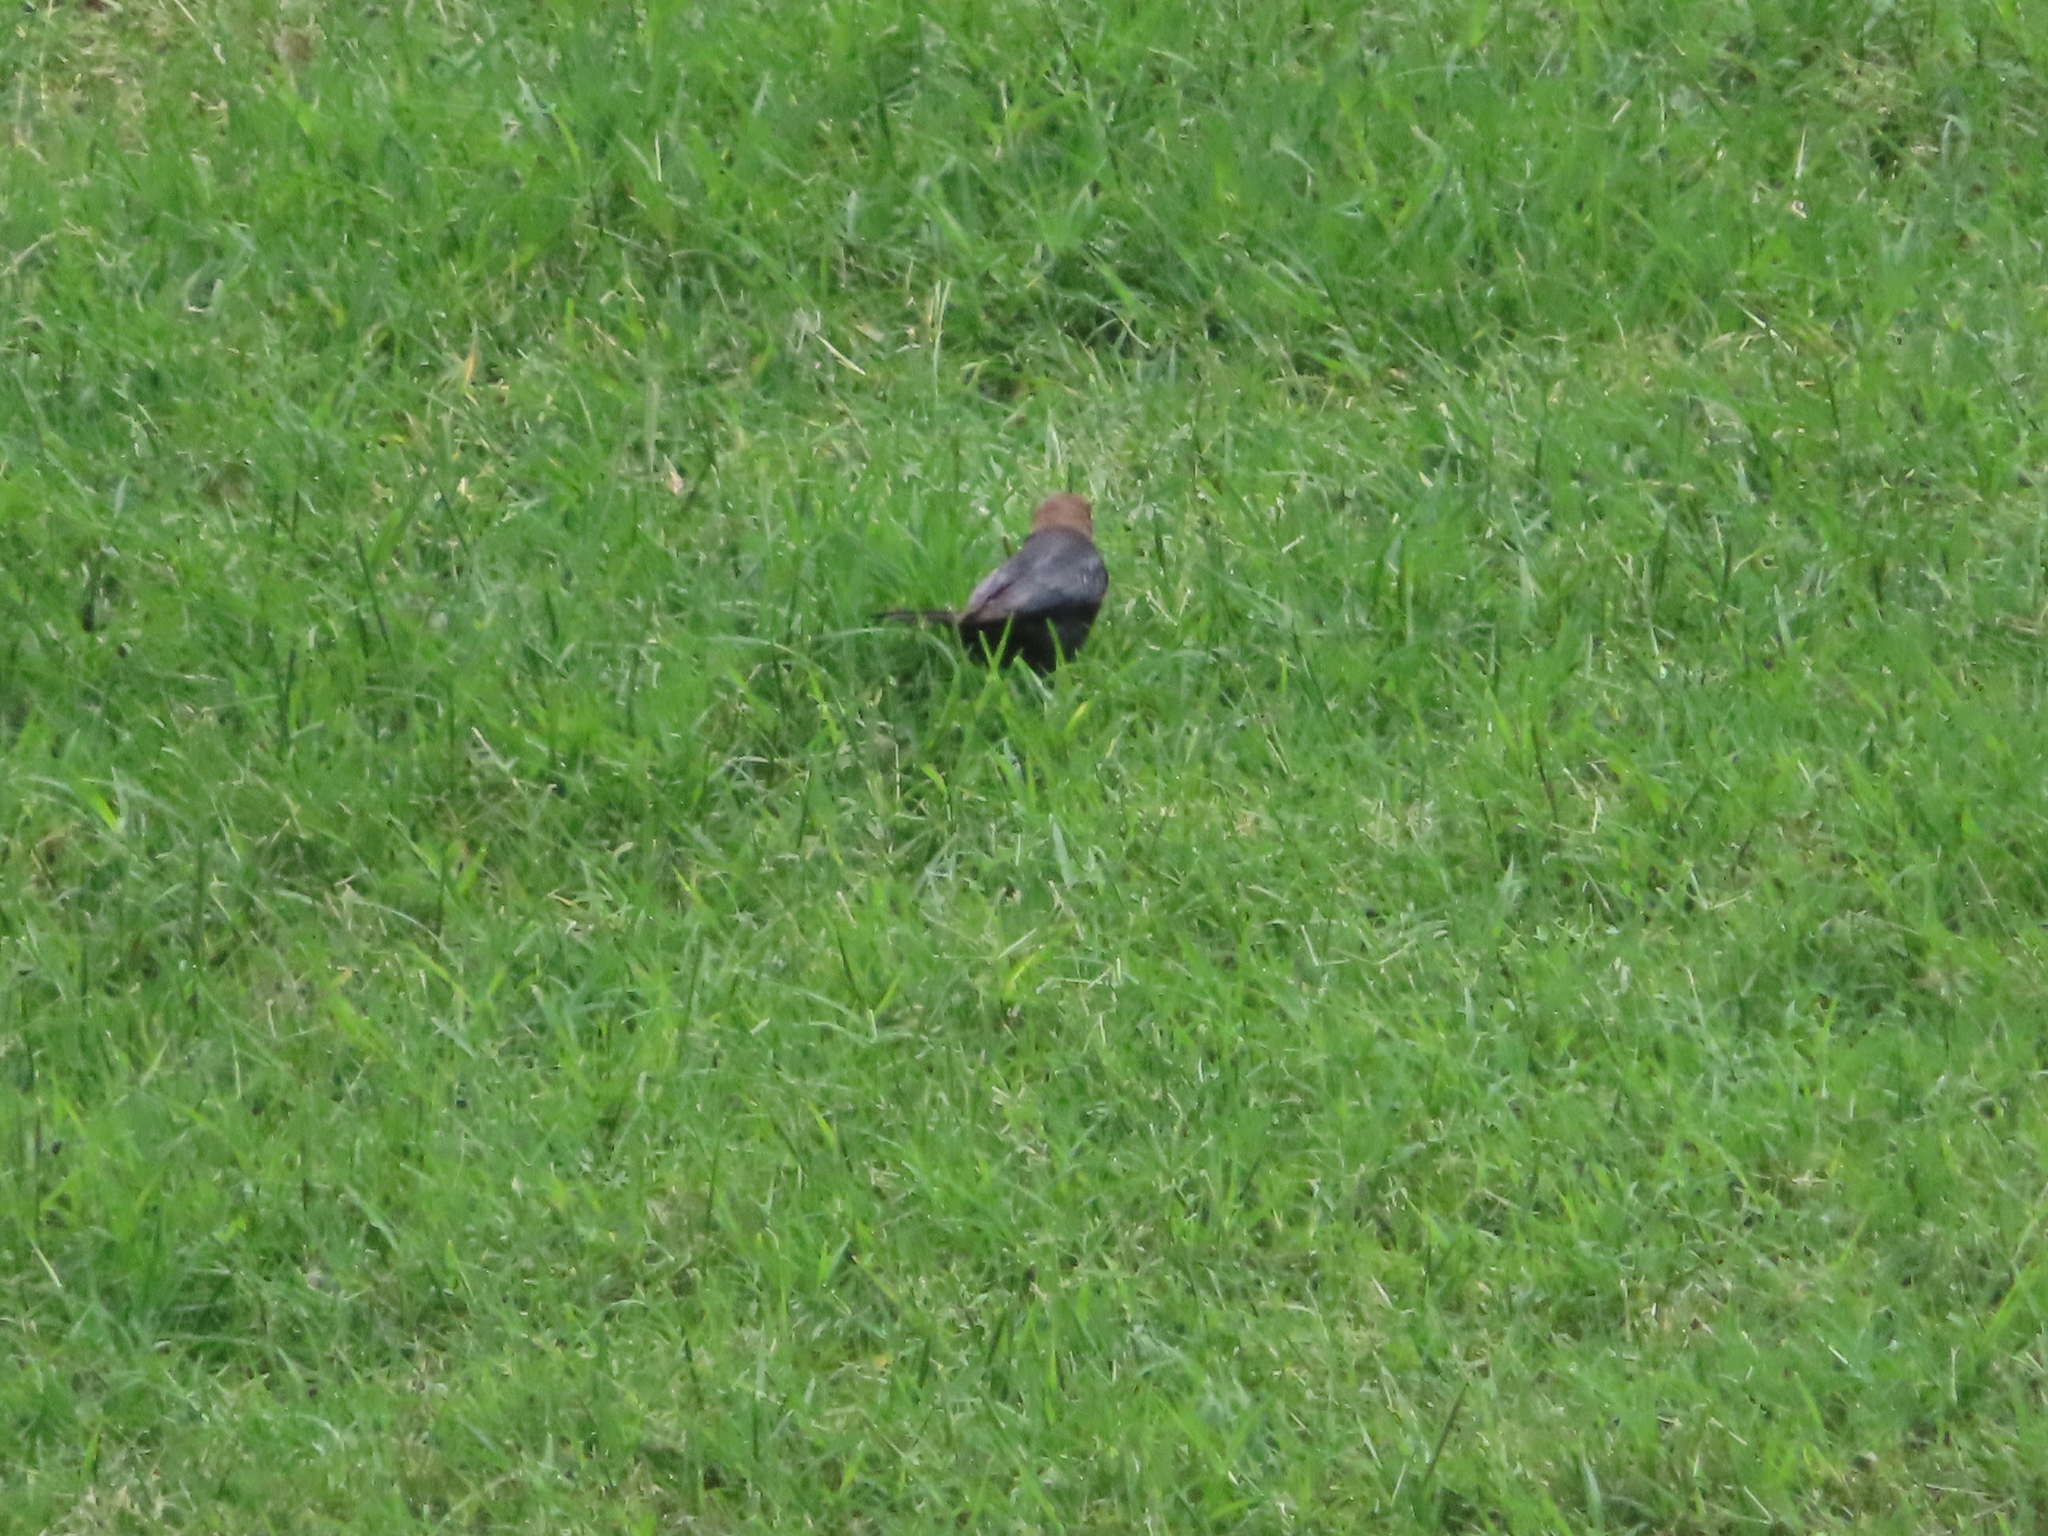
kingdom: Animalia
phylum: Chordata
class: Aves
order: Passeriformes
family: Icteridae
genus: Molothrus
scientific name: Molothrus ater
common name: Brown-headed cowbird
